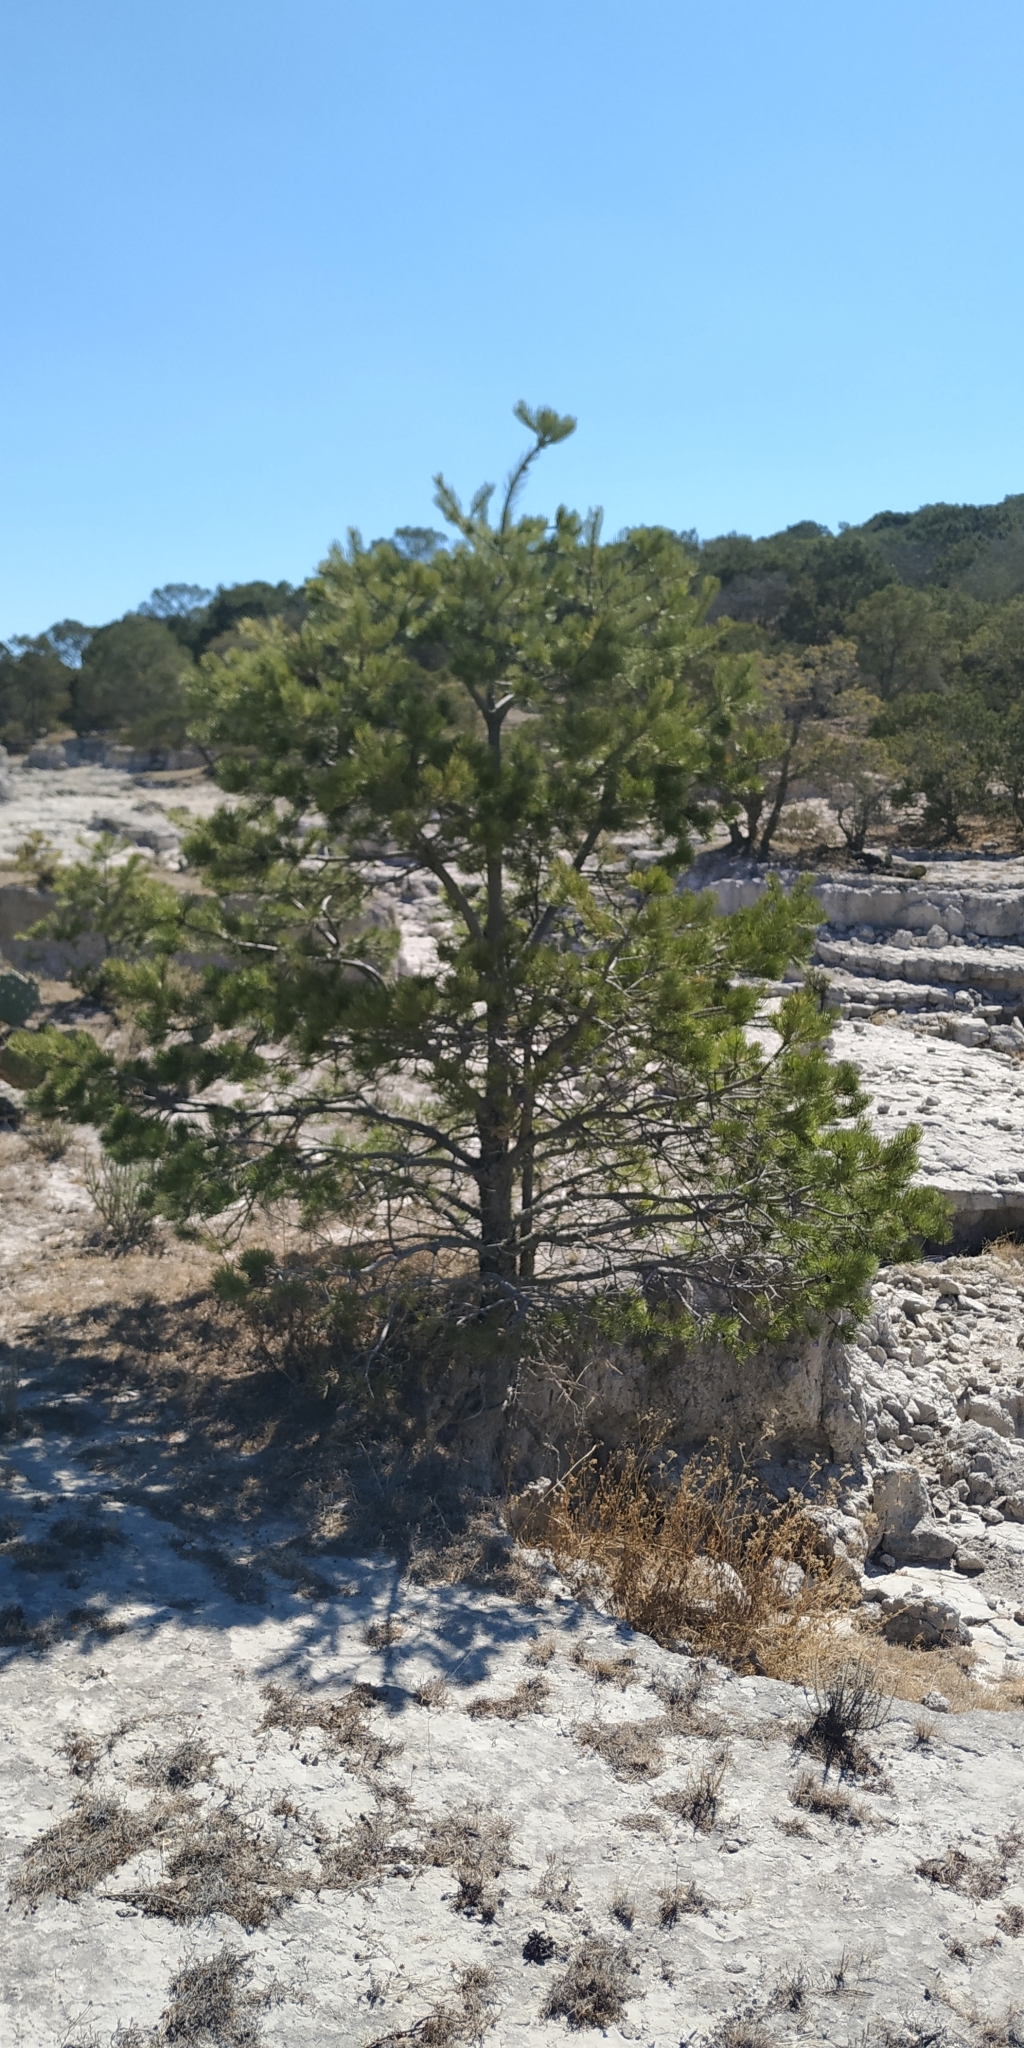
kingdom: Plantae
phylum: Tracheophyta
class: Pinopsida
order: Pinales
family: Pinaceae
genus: Pinus
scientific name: Pinus cembroides
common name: Mexican nut pine
